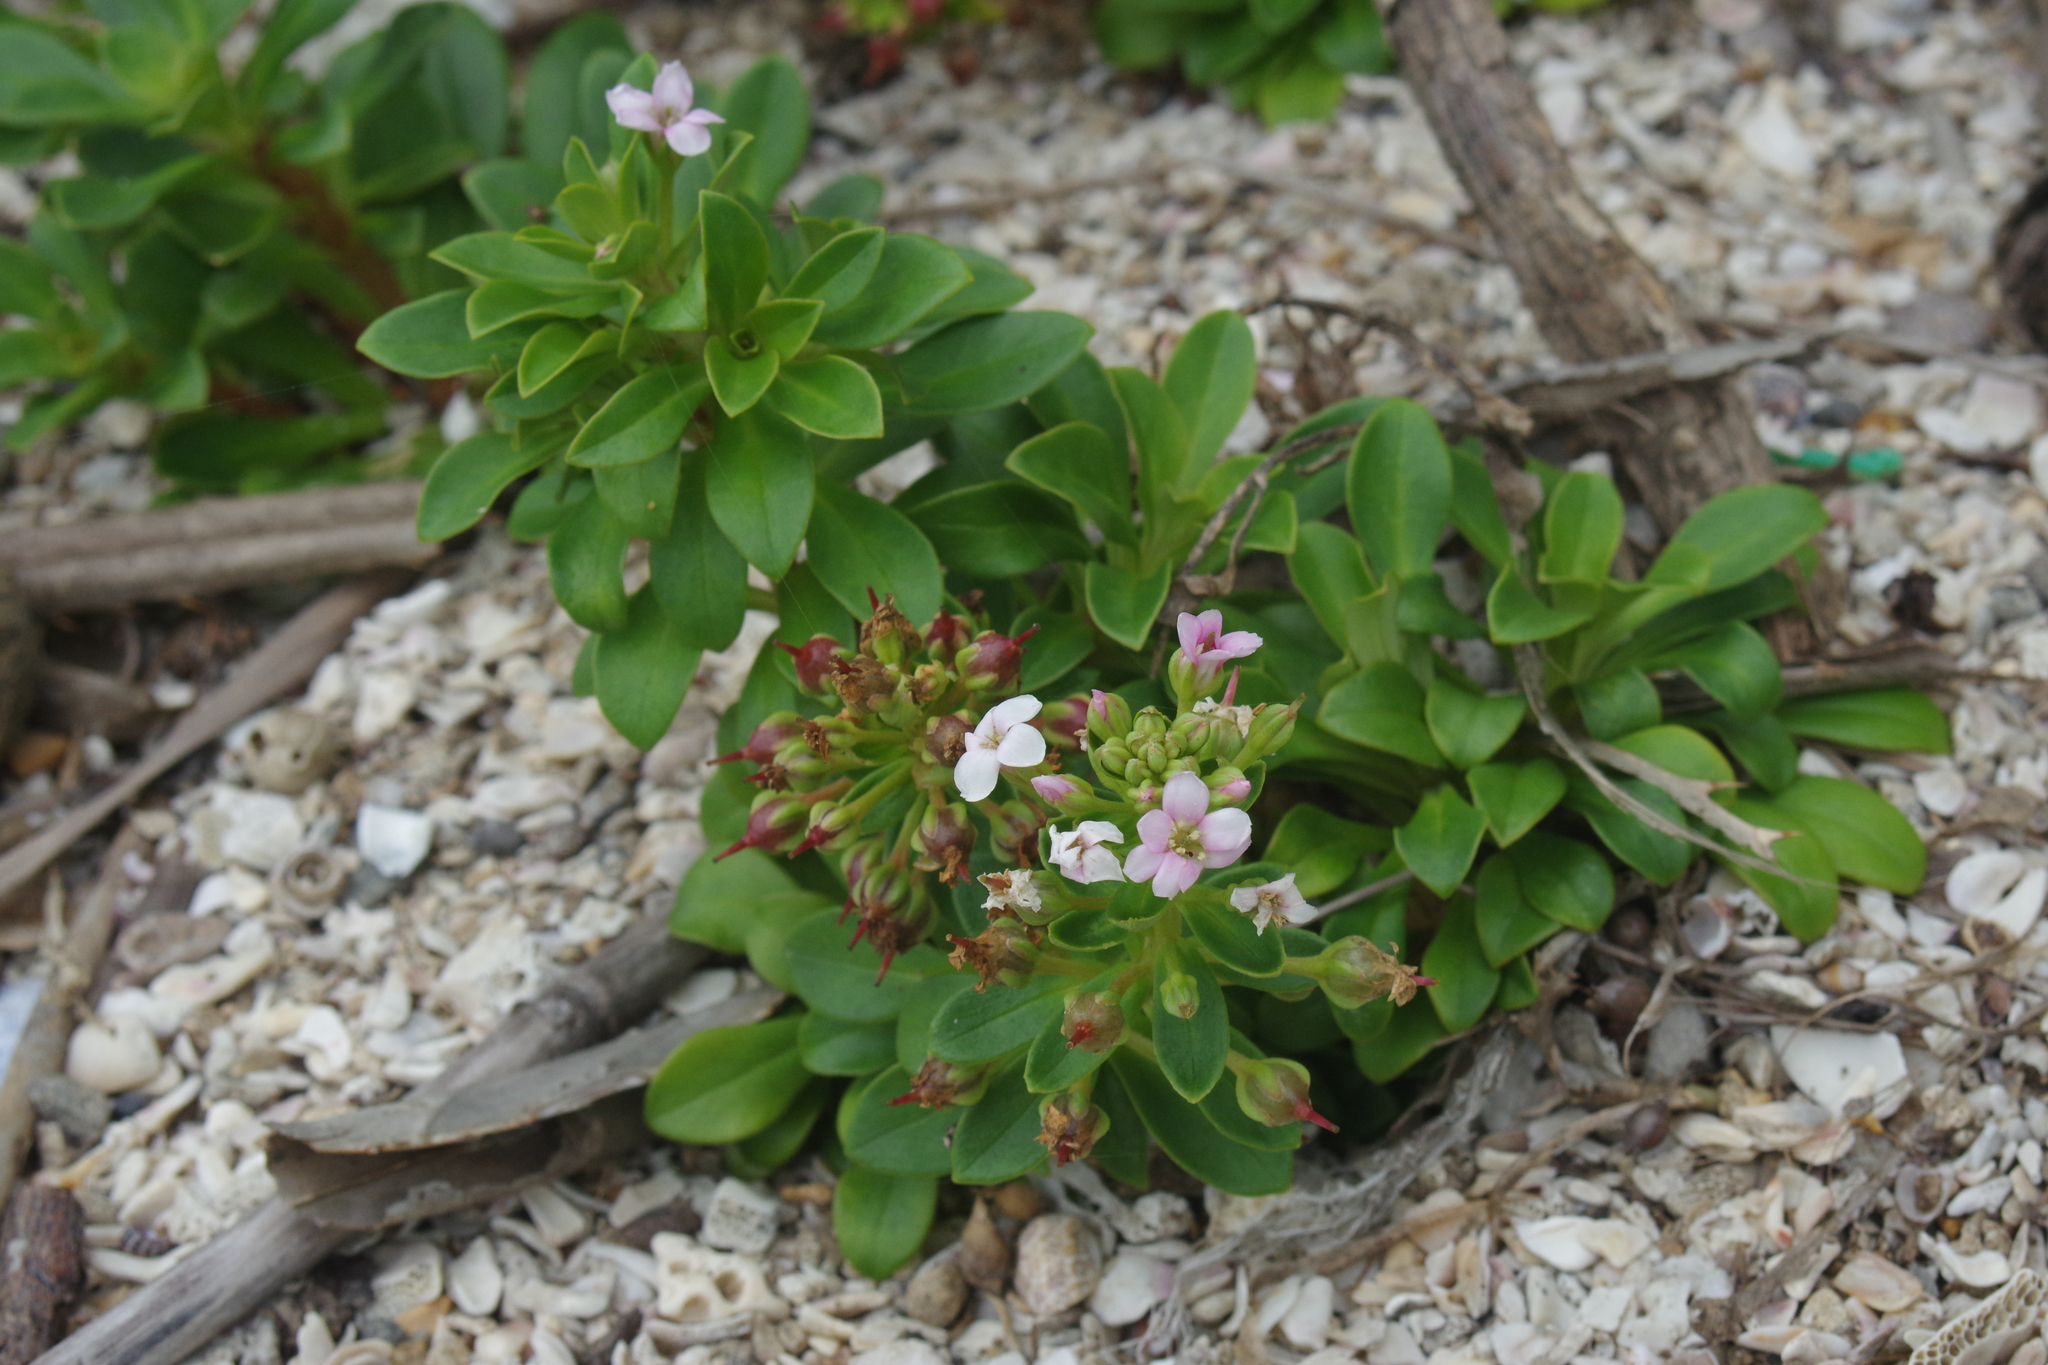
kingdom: Plantae
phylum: Tracheophyta
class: Magnoliopsida
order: Ericales
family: Primulaceae
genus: Lysimachia
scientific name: Lysimachia mauritiana
